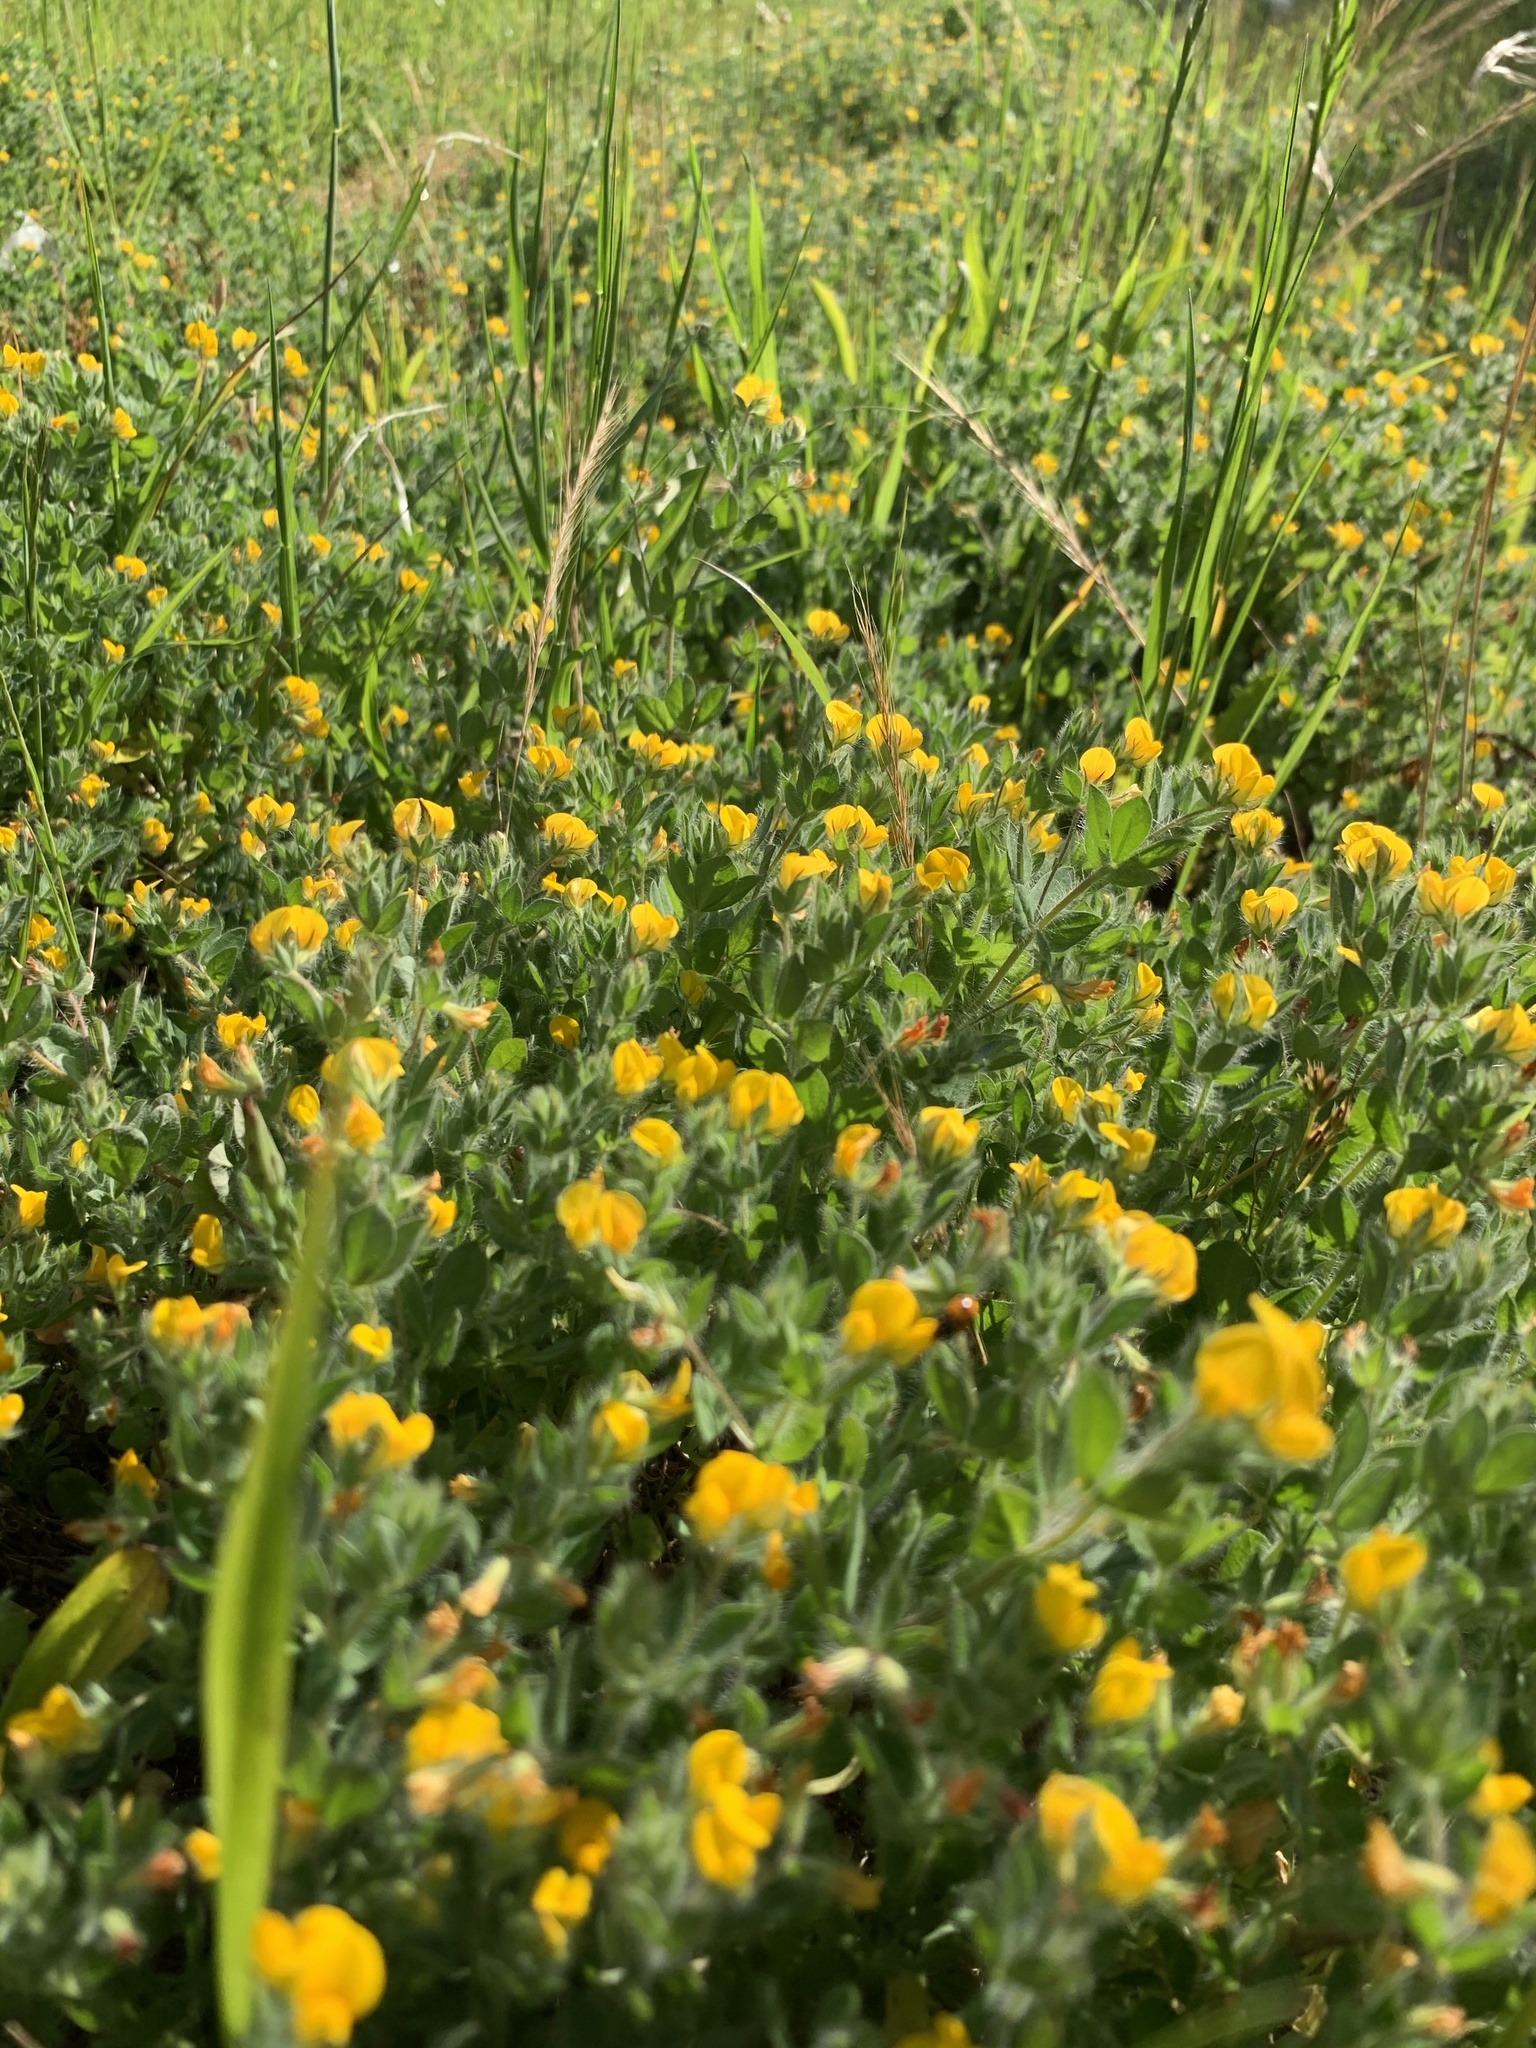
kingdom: Plantae
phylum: Tracheophyta
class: Magnoliopsida
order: Fabales
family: Fabaceae
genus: Lotus
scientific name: Lotus subbiflorus
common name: Hairy bird's-foot trefoil
